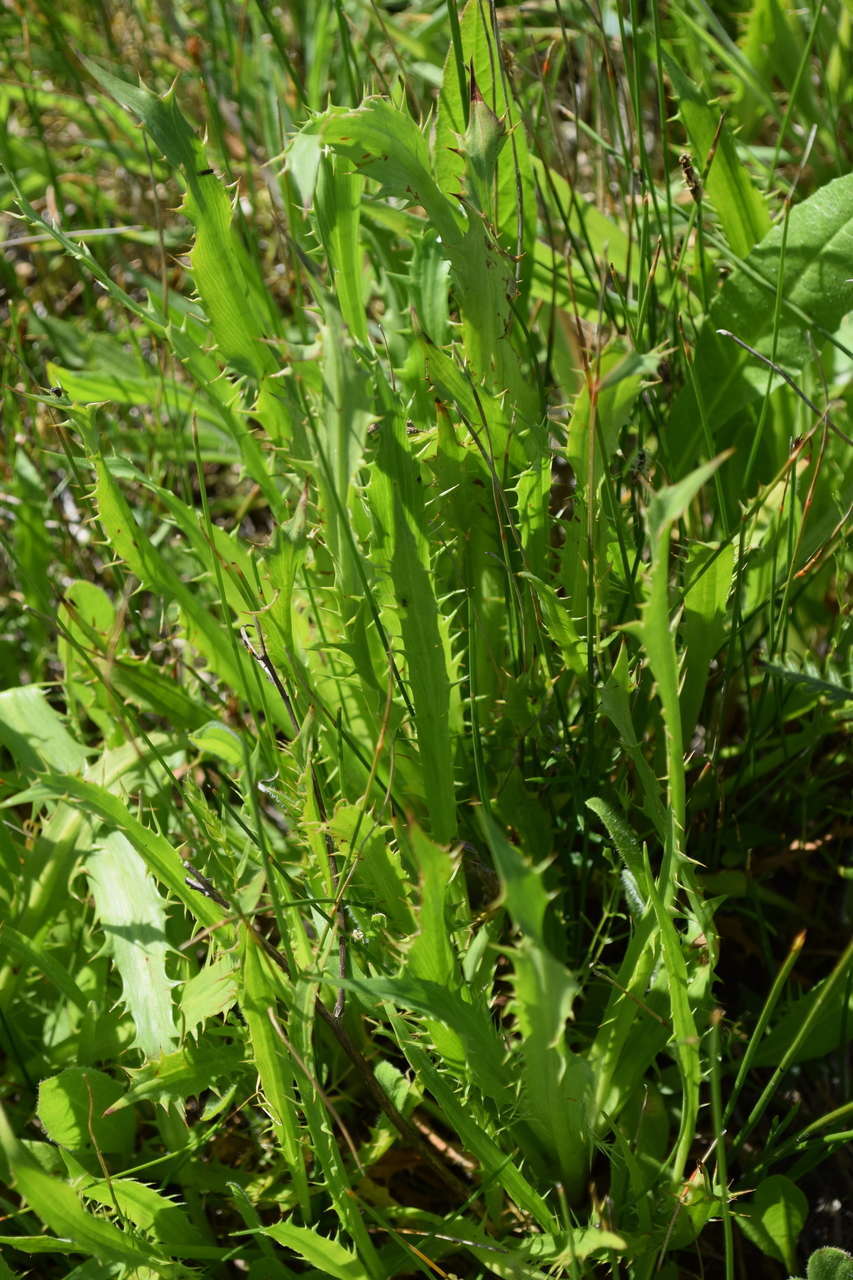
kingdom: Plantae
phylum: Tracheophyta
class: Magnoliopsida
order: Apiales
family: Apiaceae
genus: Eryngium
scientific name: Eryngium vesiculosum
